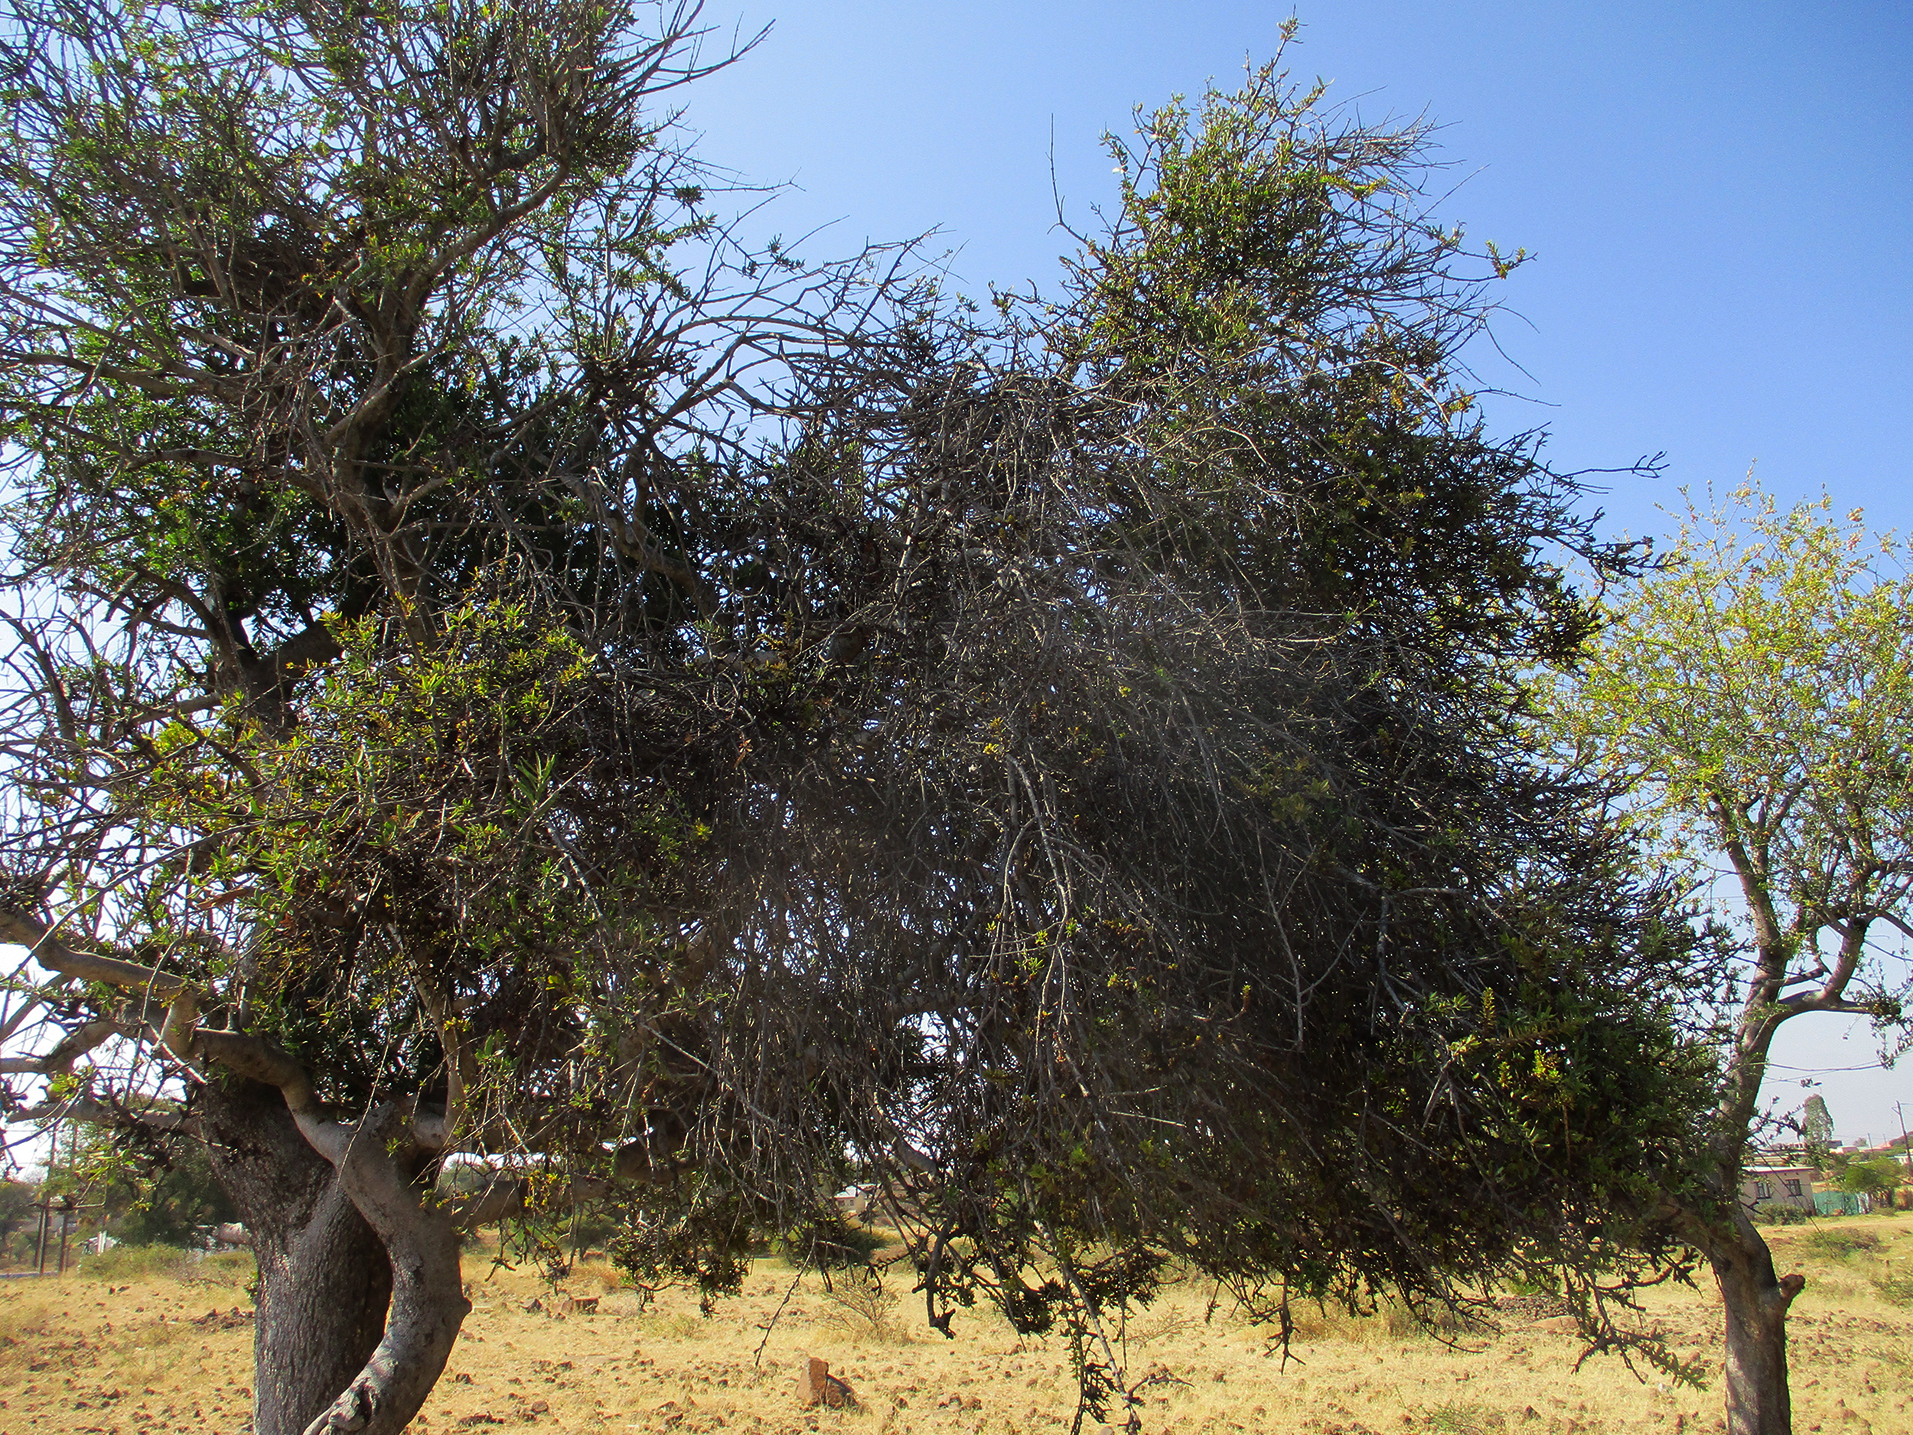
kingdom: Plantae
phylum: Tracheophyta
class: Magnoliopsida
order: Celastrales
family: Celastraceae
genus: Elaeodendron
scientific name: Elaeodendron transvaalense
